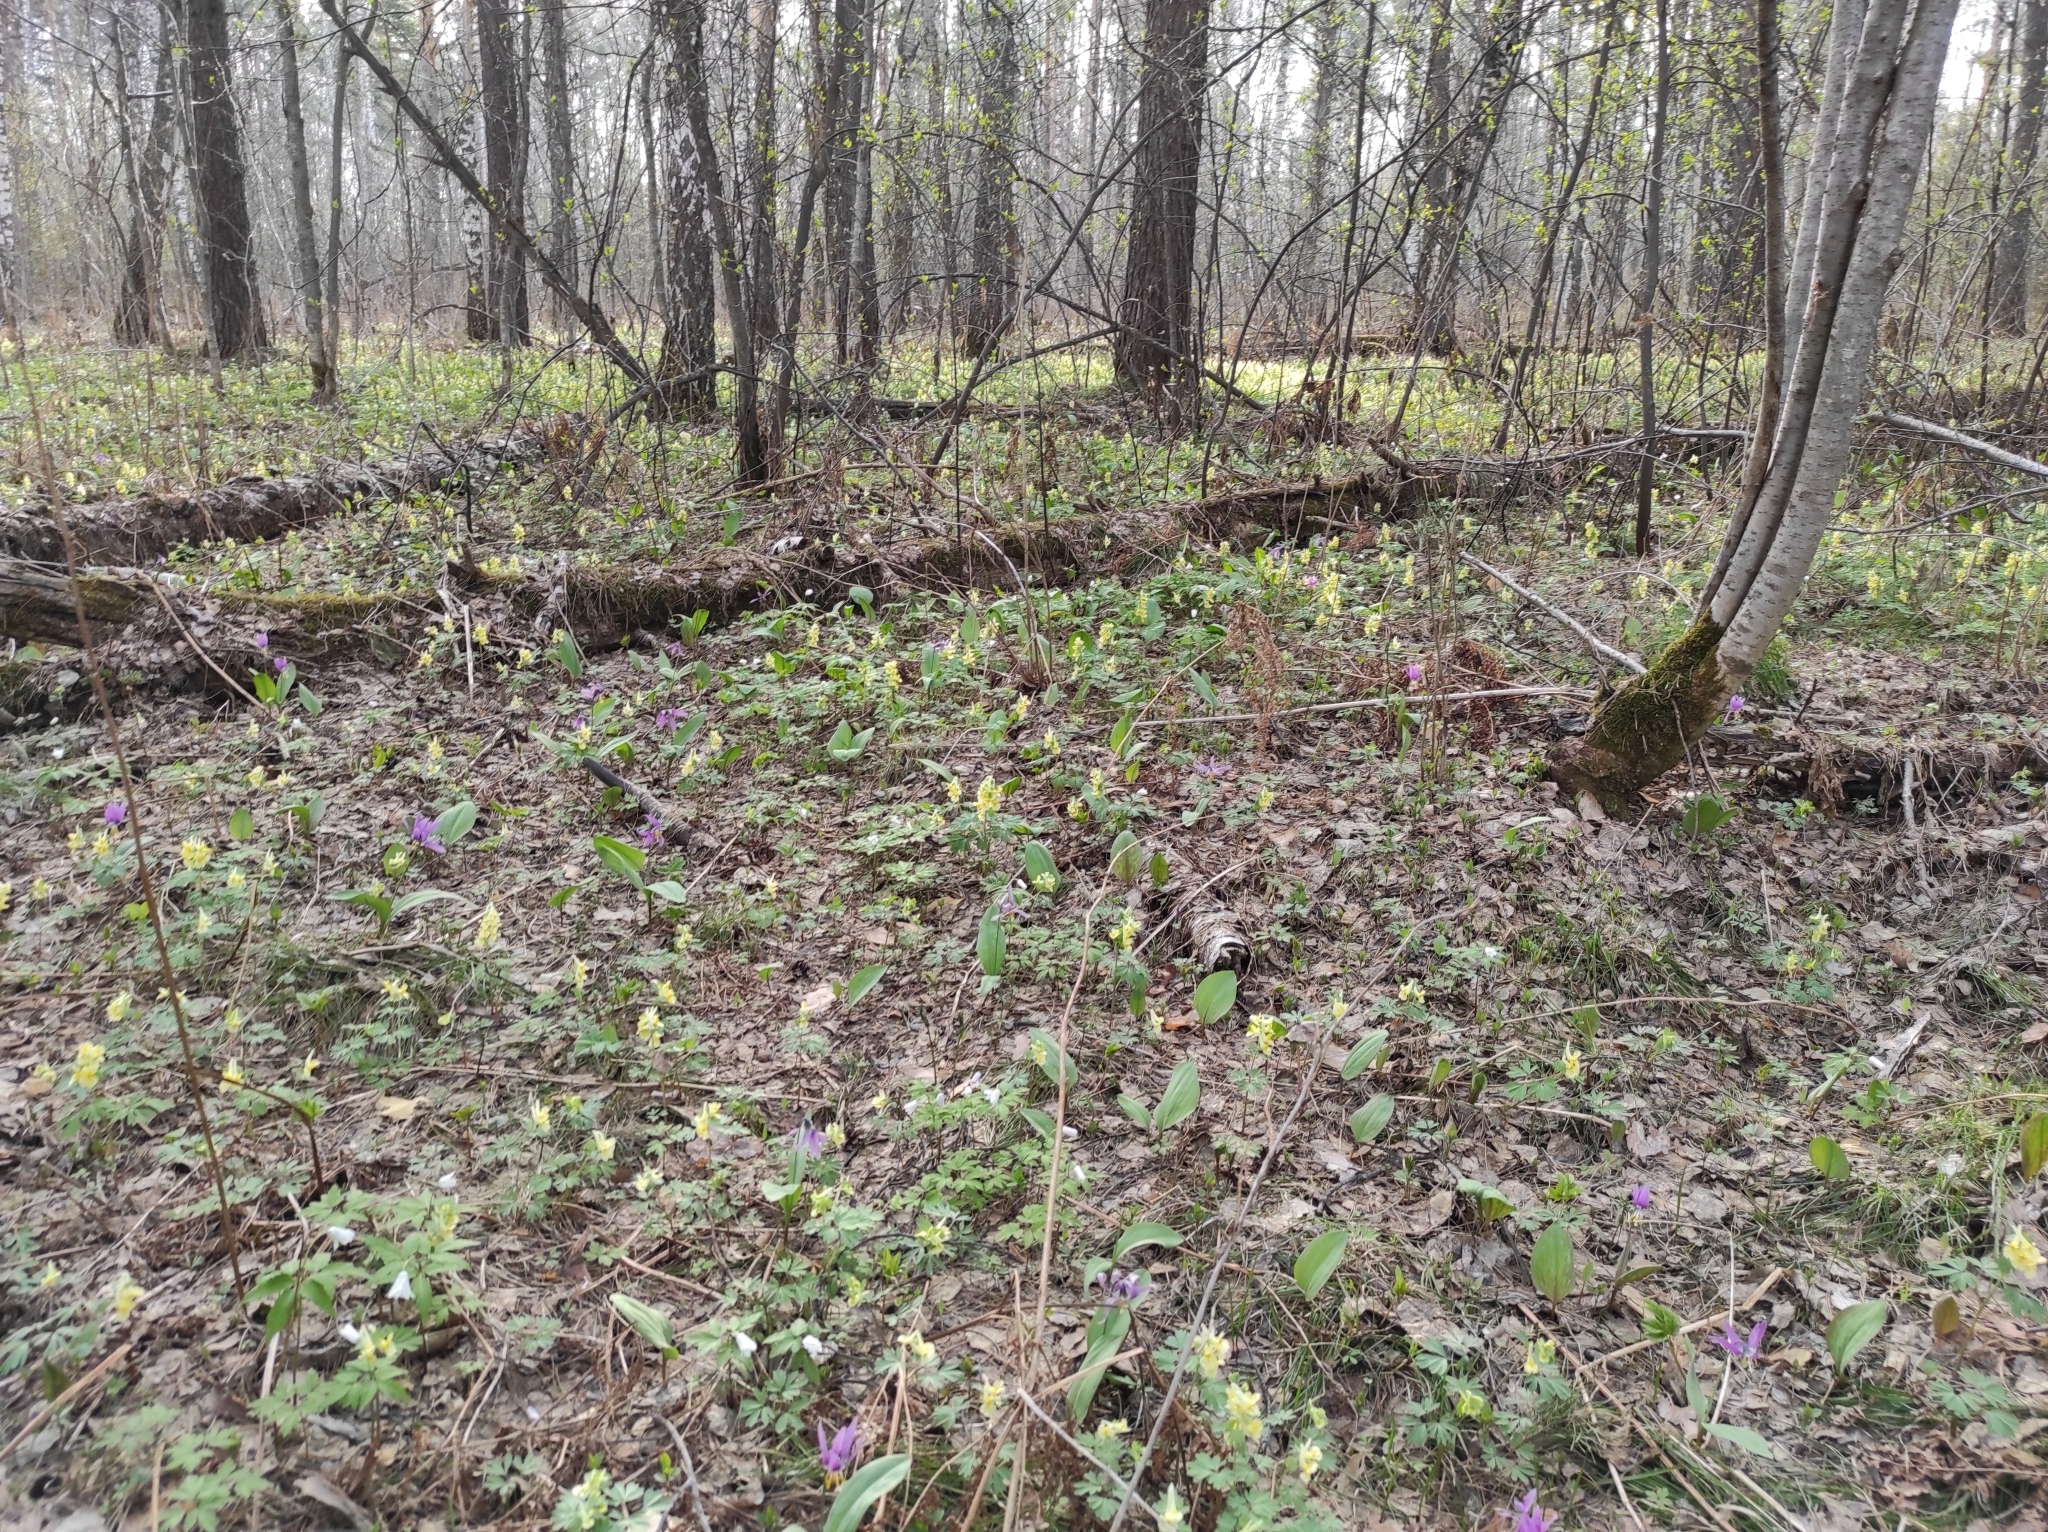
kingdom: Plantae
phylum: Tracheophyta
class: Magnoliopsida
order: Ranunculales
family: Ranunculaceae
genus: Anemone
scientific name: Anemone altaica
